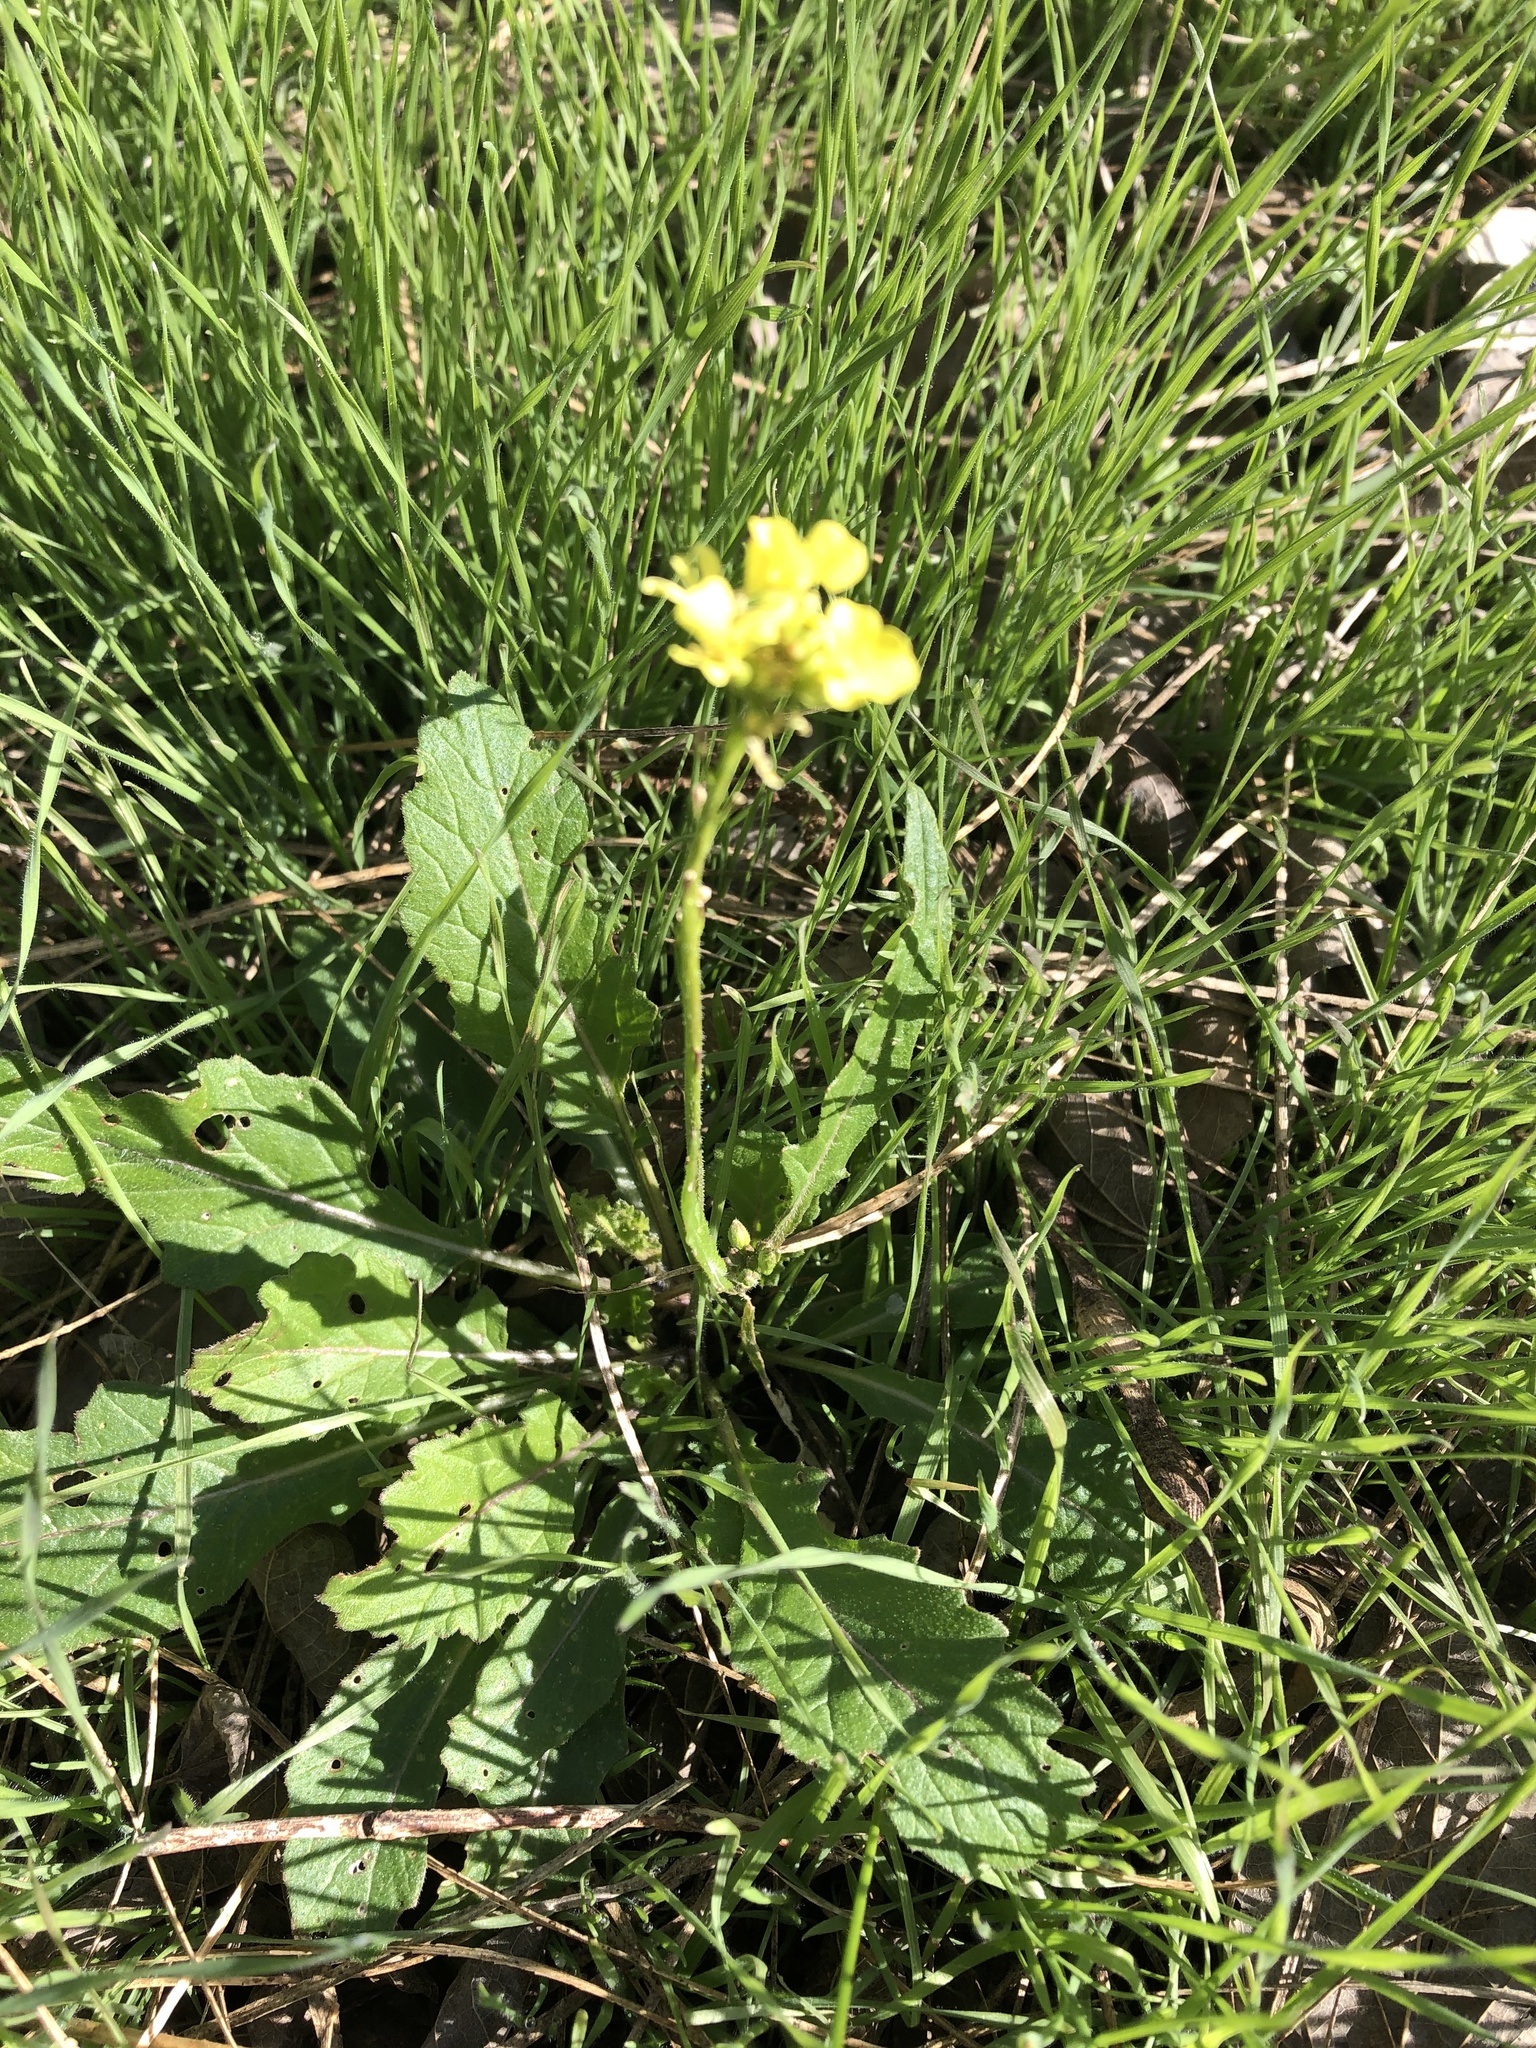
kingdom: Plantae
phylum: Tracheophyta
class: Magnoliopsida
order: Brassicales
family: Brassicaceae
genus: Rapistrum
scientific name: Rapistrum rugosum
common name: Annual bastardcabbage
